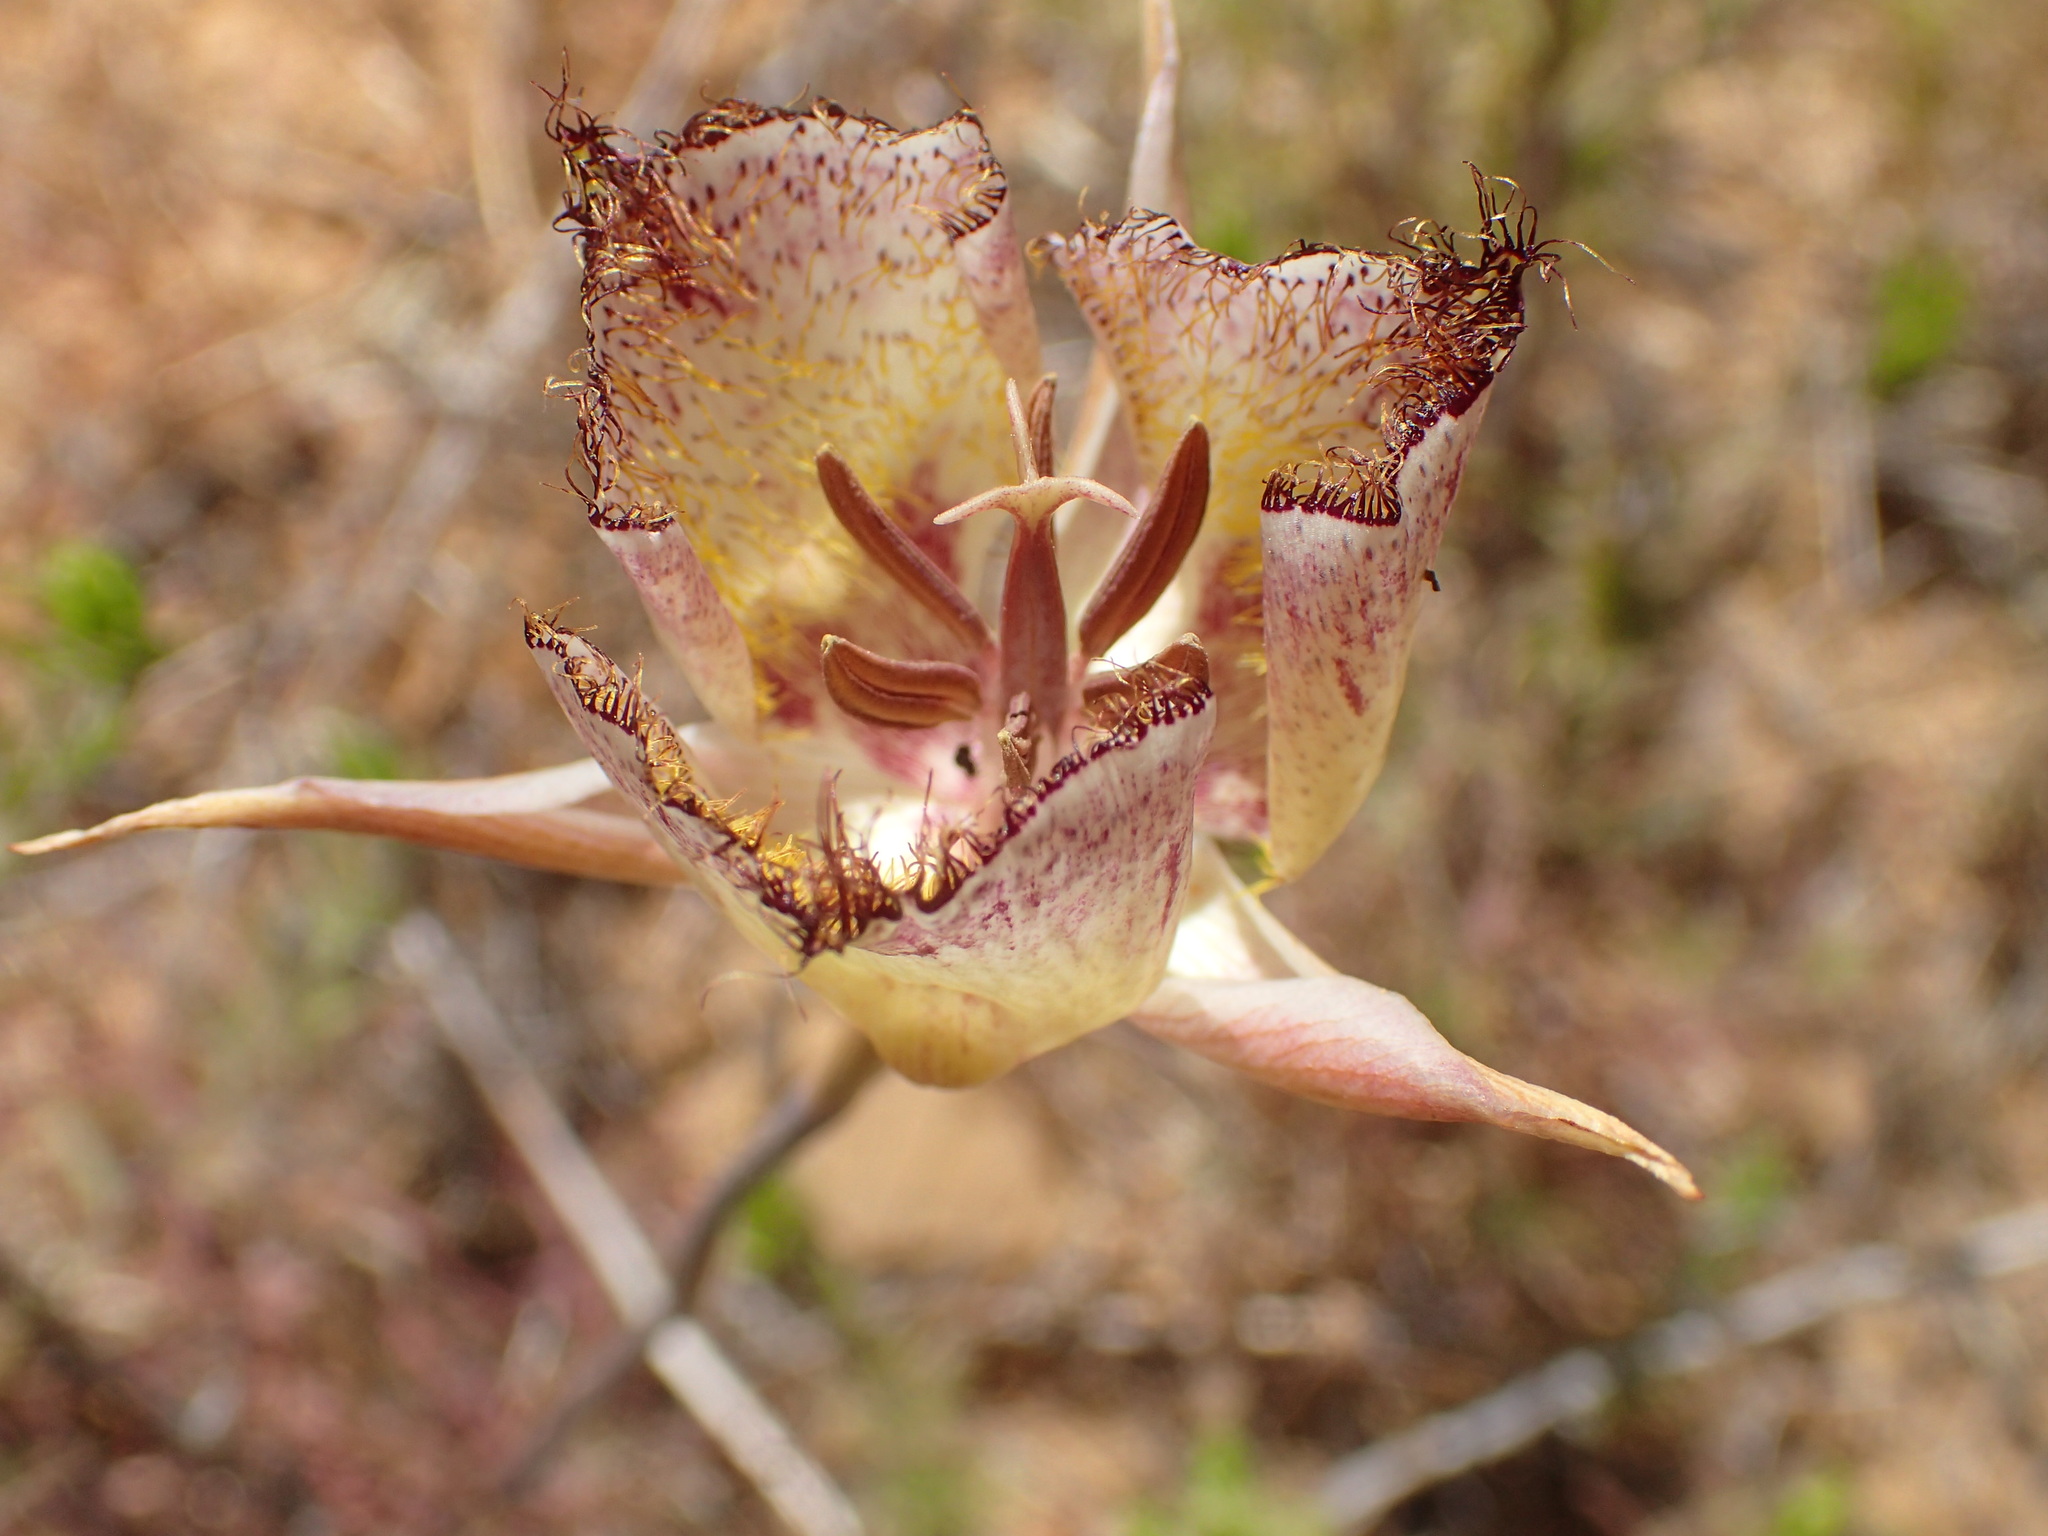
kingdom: Plantae
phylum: Tracheophyta
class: Liliopsida
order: Liliales
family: Liliaceae
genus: Calochortus
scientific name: Calochortus fimbriatus
